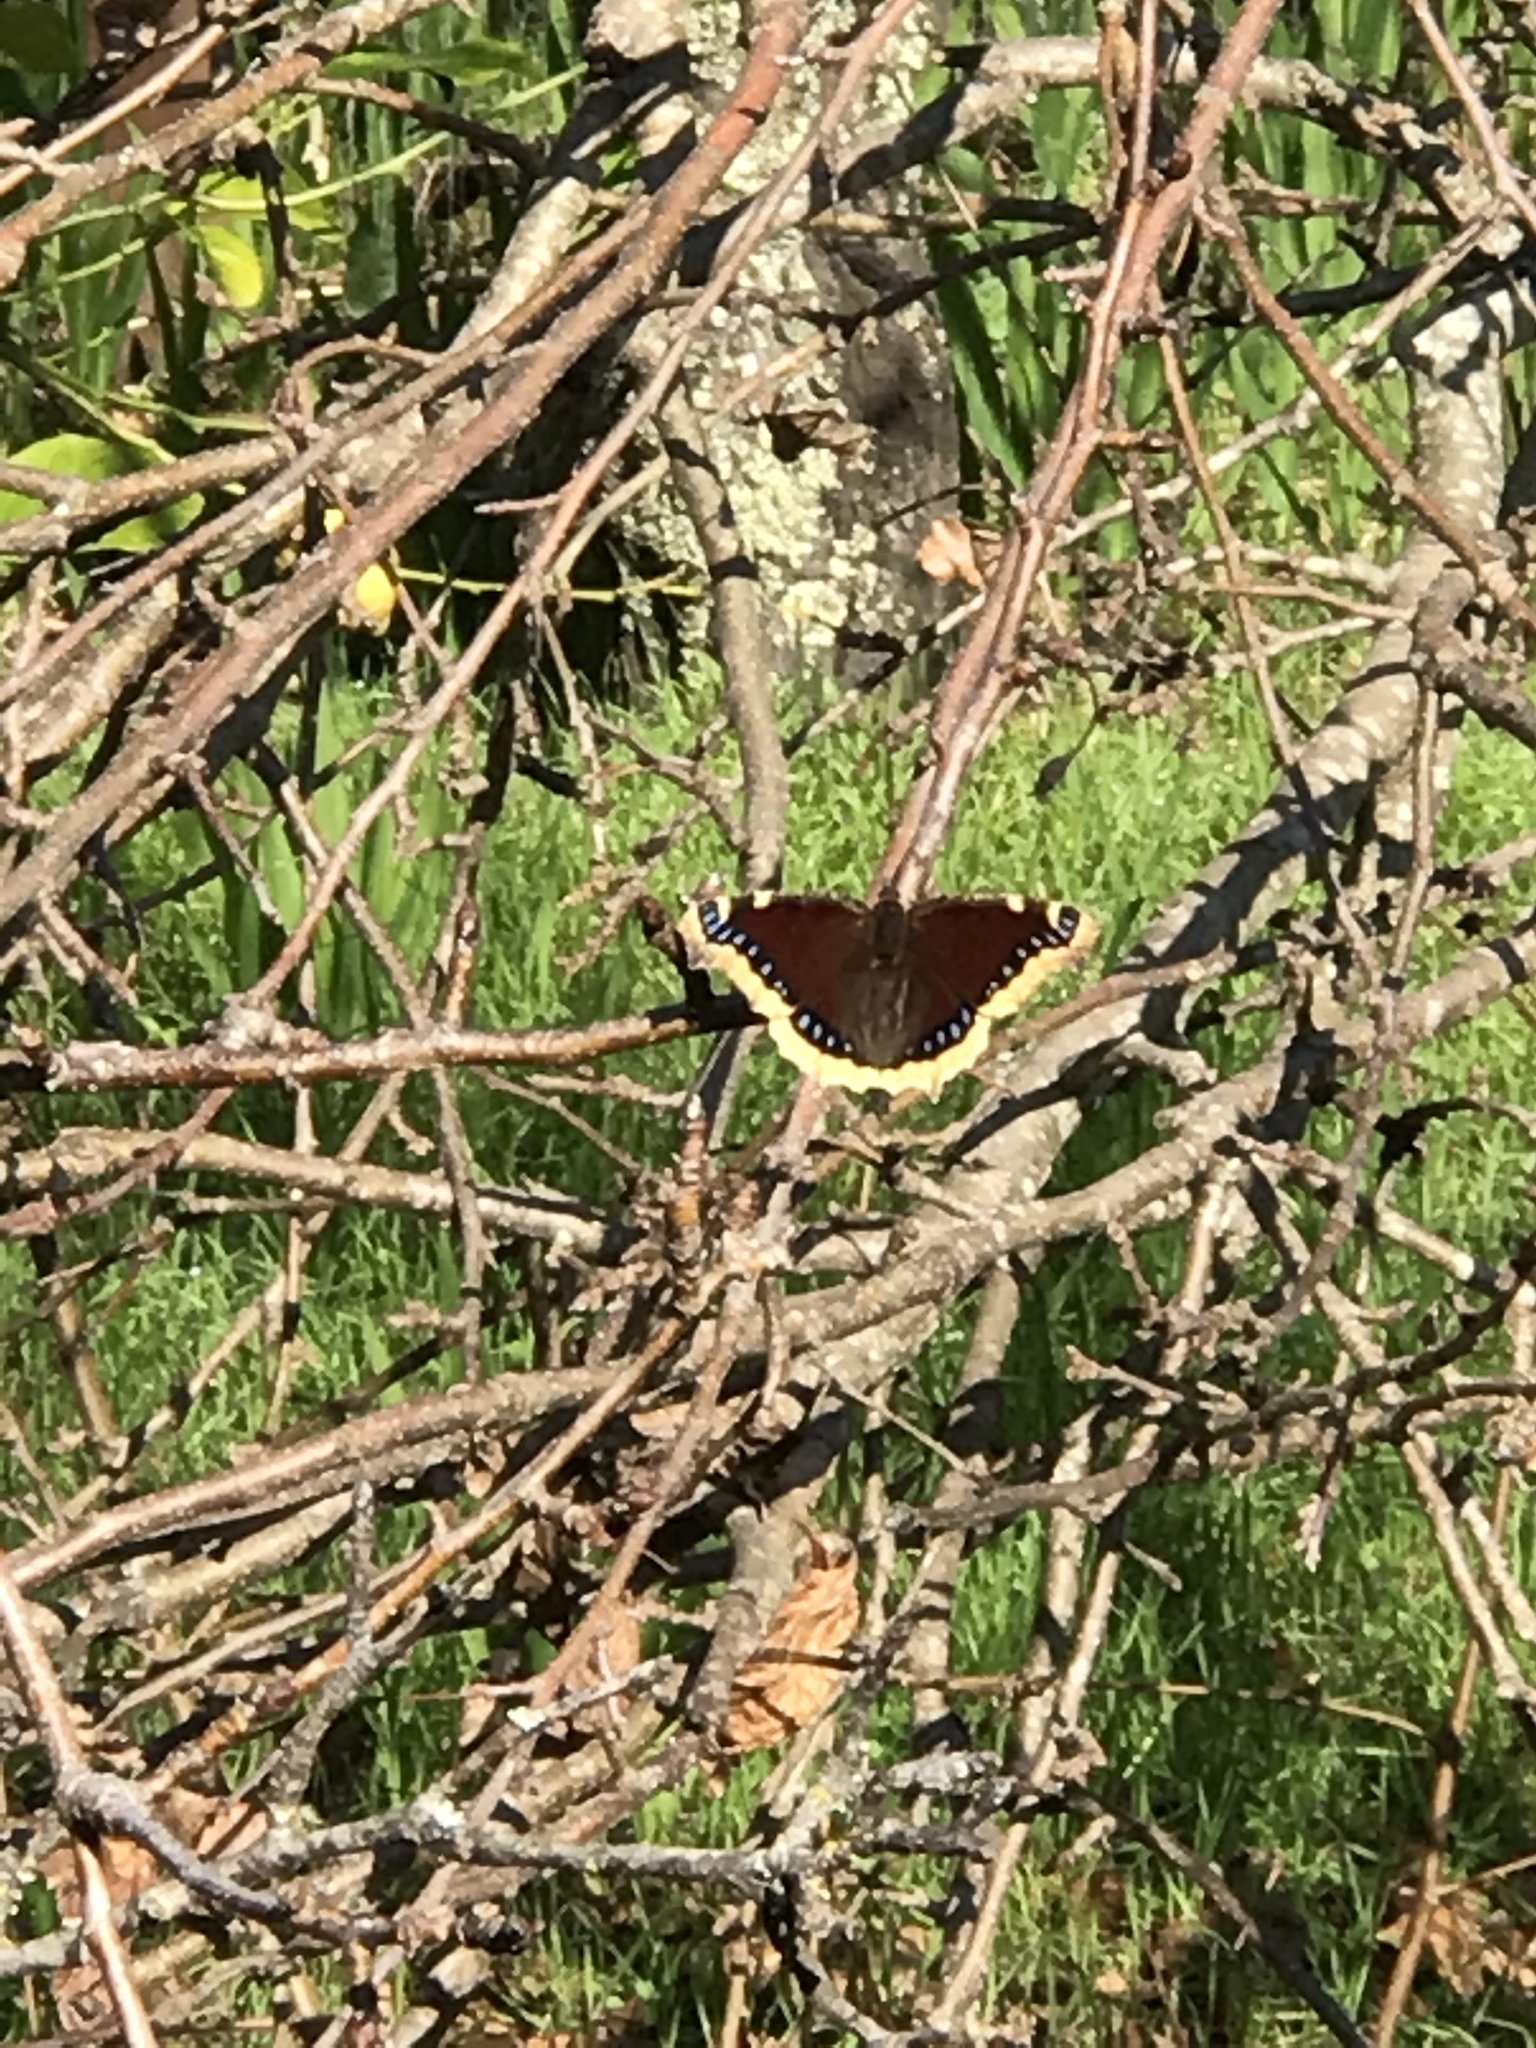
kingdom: Animalia
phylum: Arthropoda
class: Insecta
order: Lepidoptera
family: Nymphalidae
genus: Nymphalis
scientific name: Nymphalis antiopa
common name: Camberwell beauty
